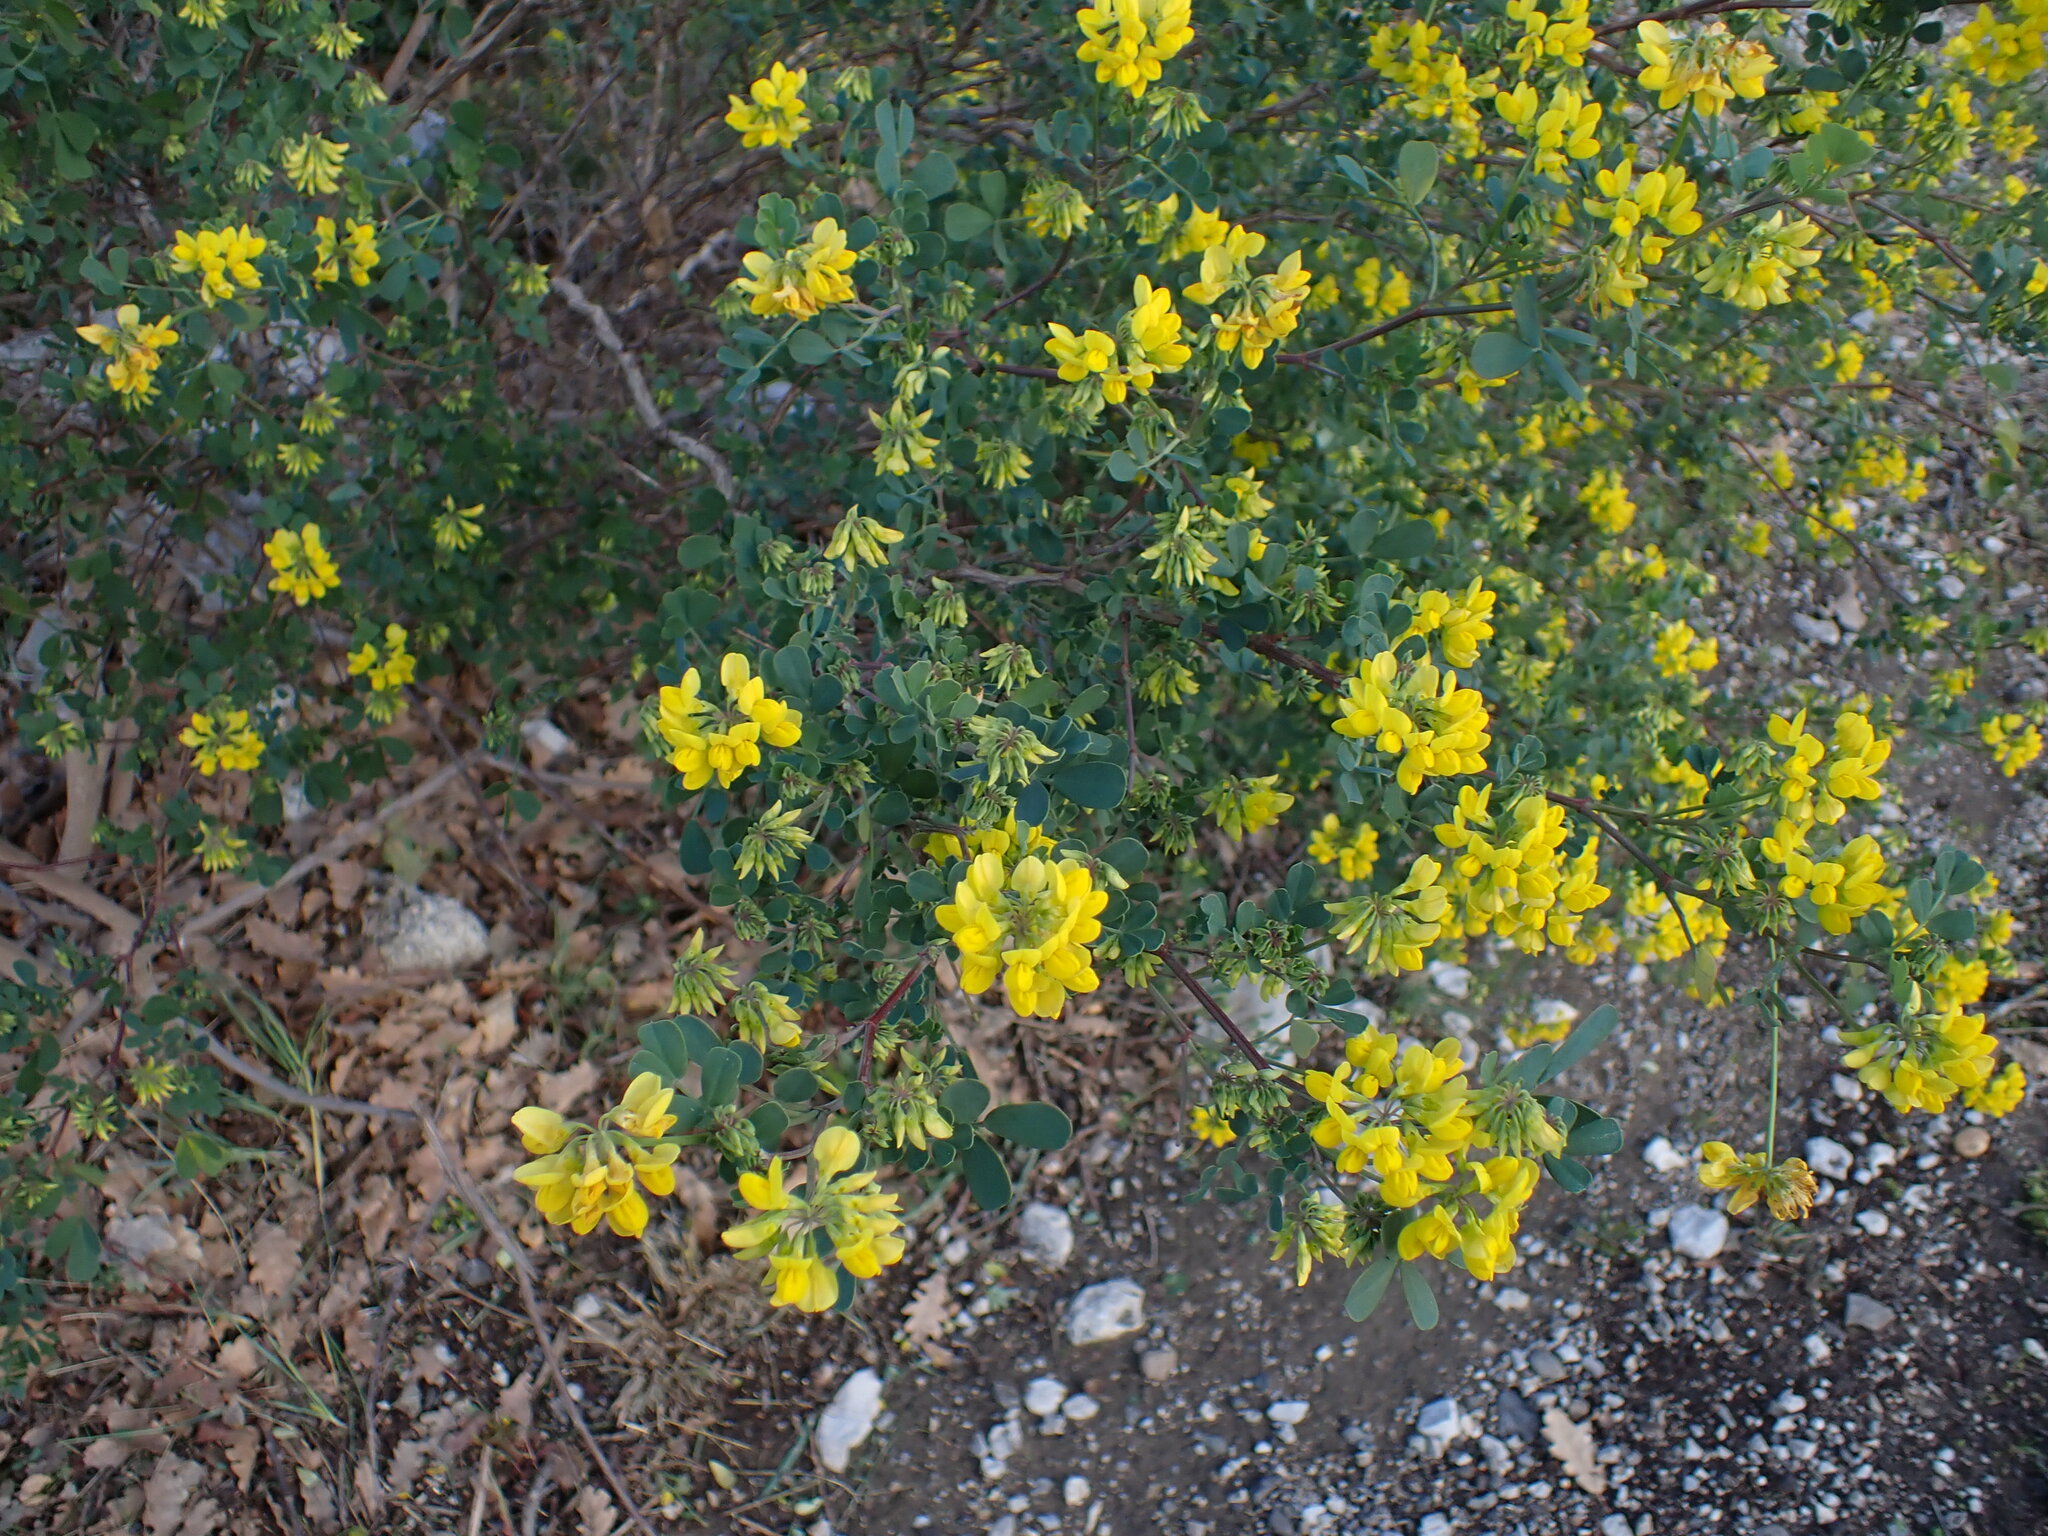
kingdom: Plantae
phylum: Tracheophyta
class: Magnoliopsida
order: Fabales
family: Fabaceae
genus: Coronilla
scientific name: Coronilla valentina
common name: Shrubby scorpion-vetch
